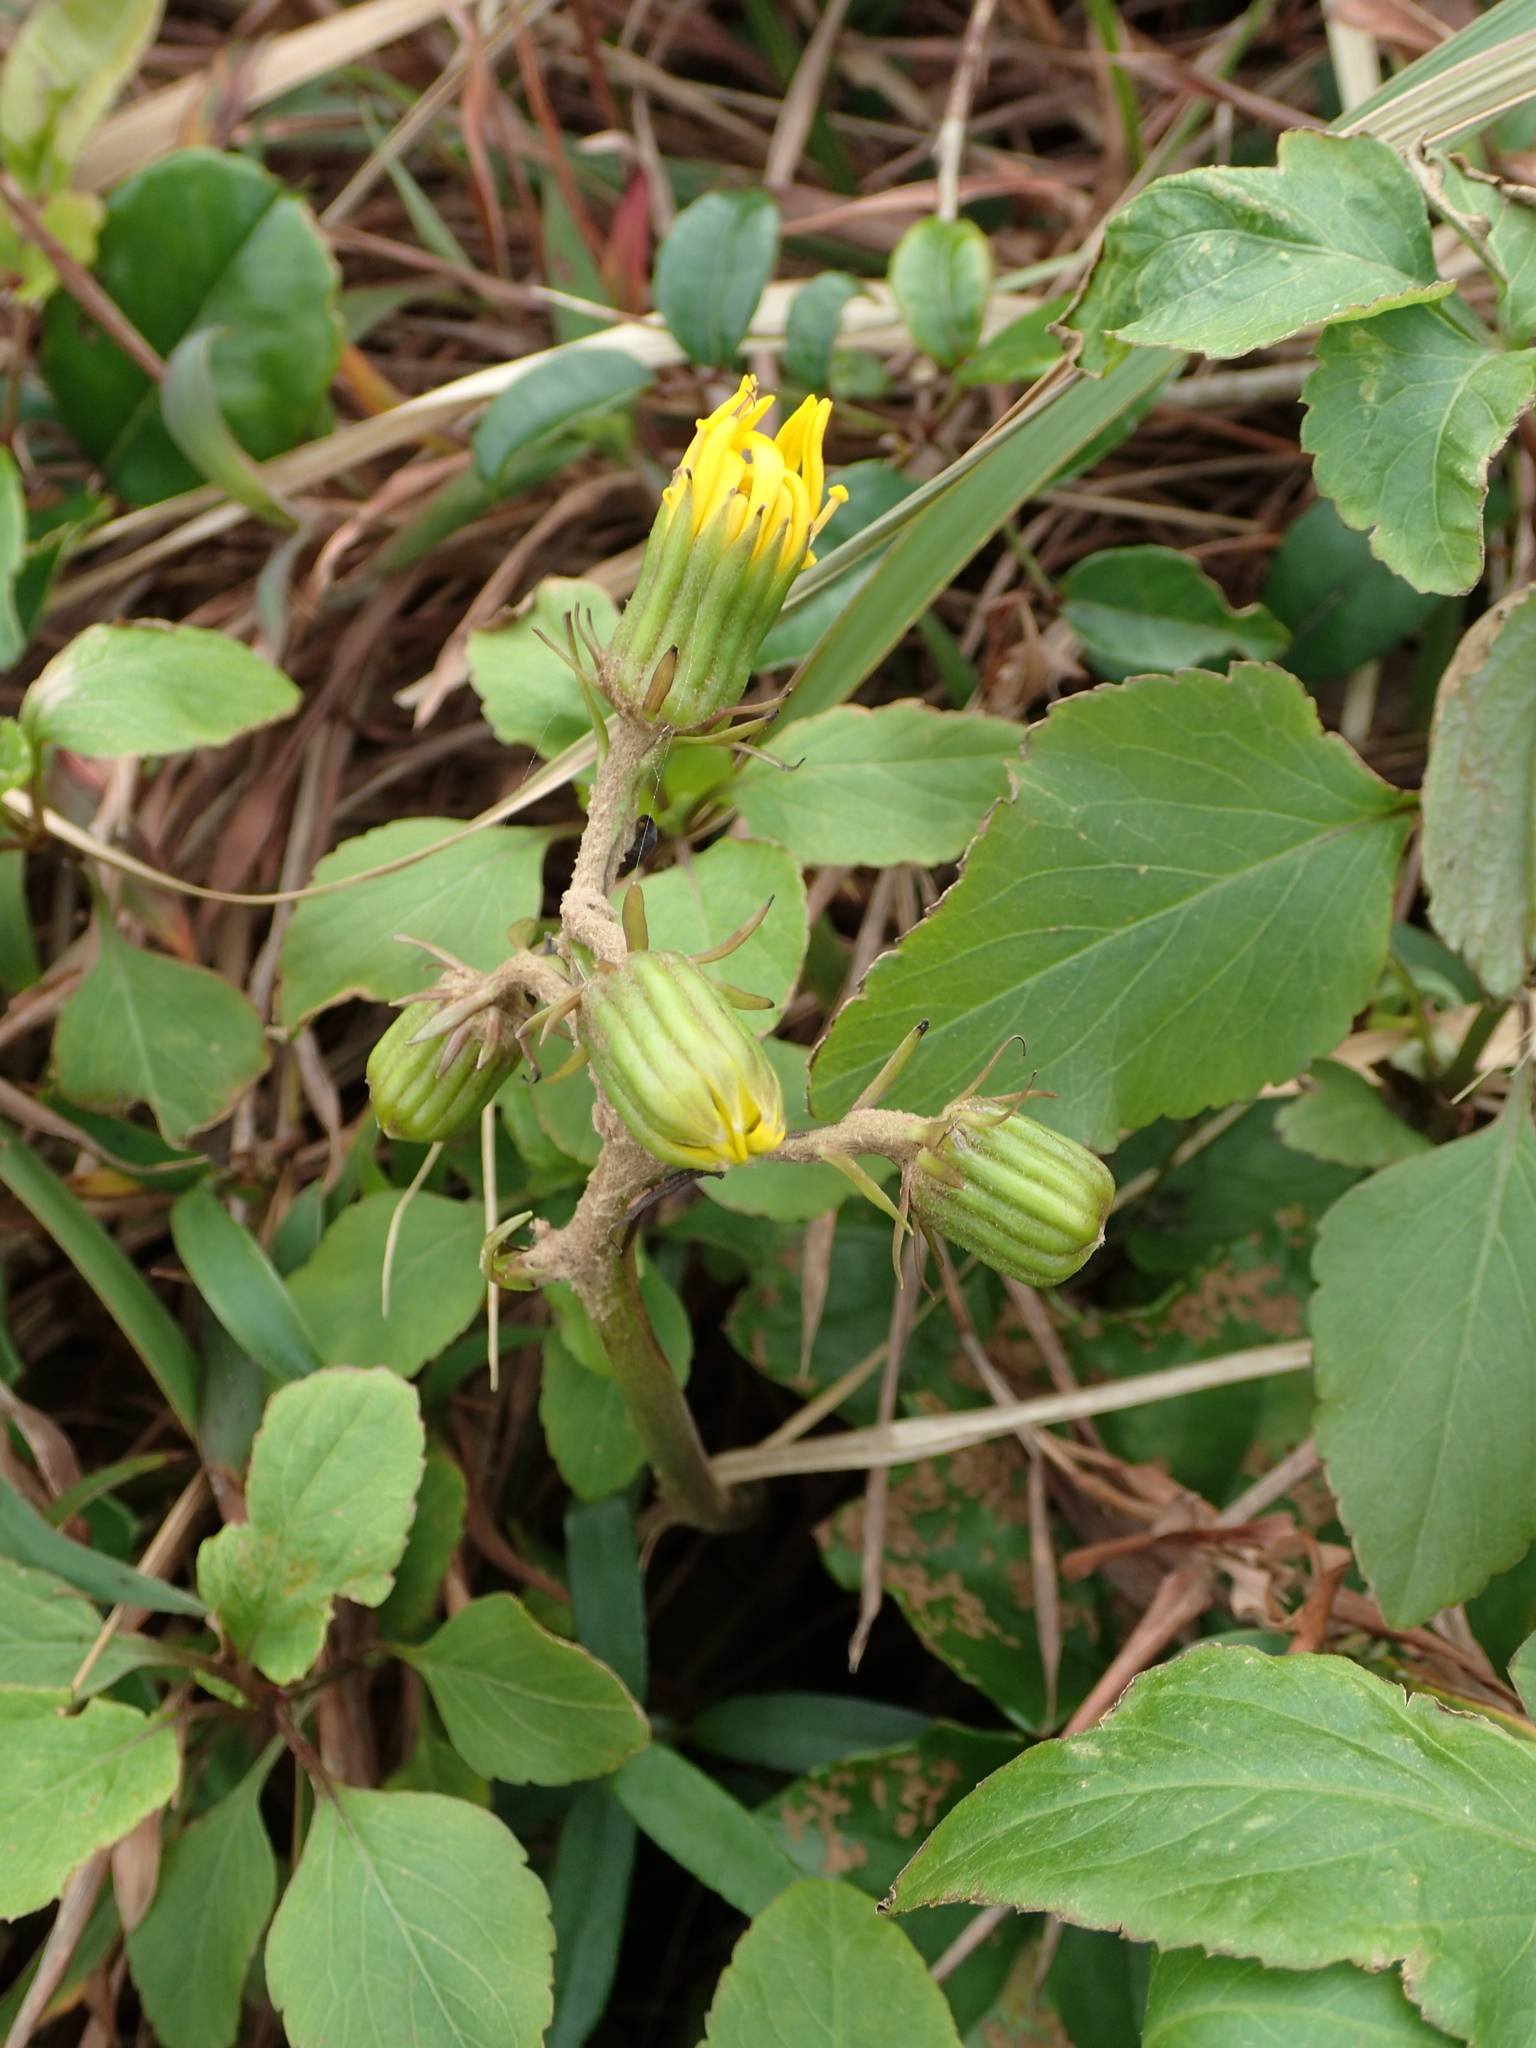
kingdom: Plantae
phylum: Tracheophyta
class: Magnoliopsida
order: Asterales
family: Asteraceae
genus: Farfugium
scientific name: Farfugium japonicum
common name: Leopardplant
